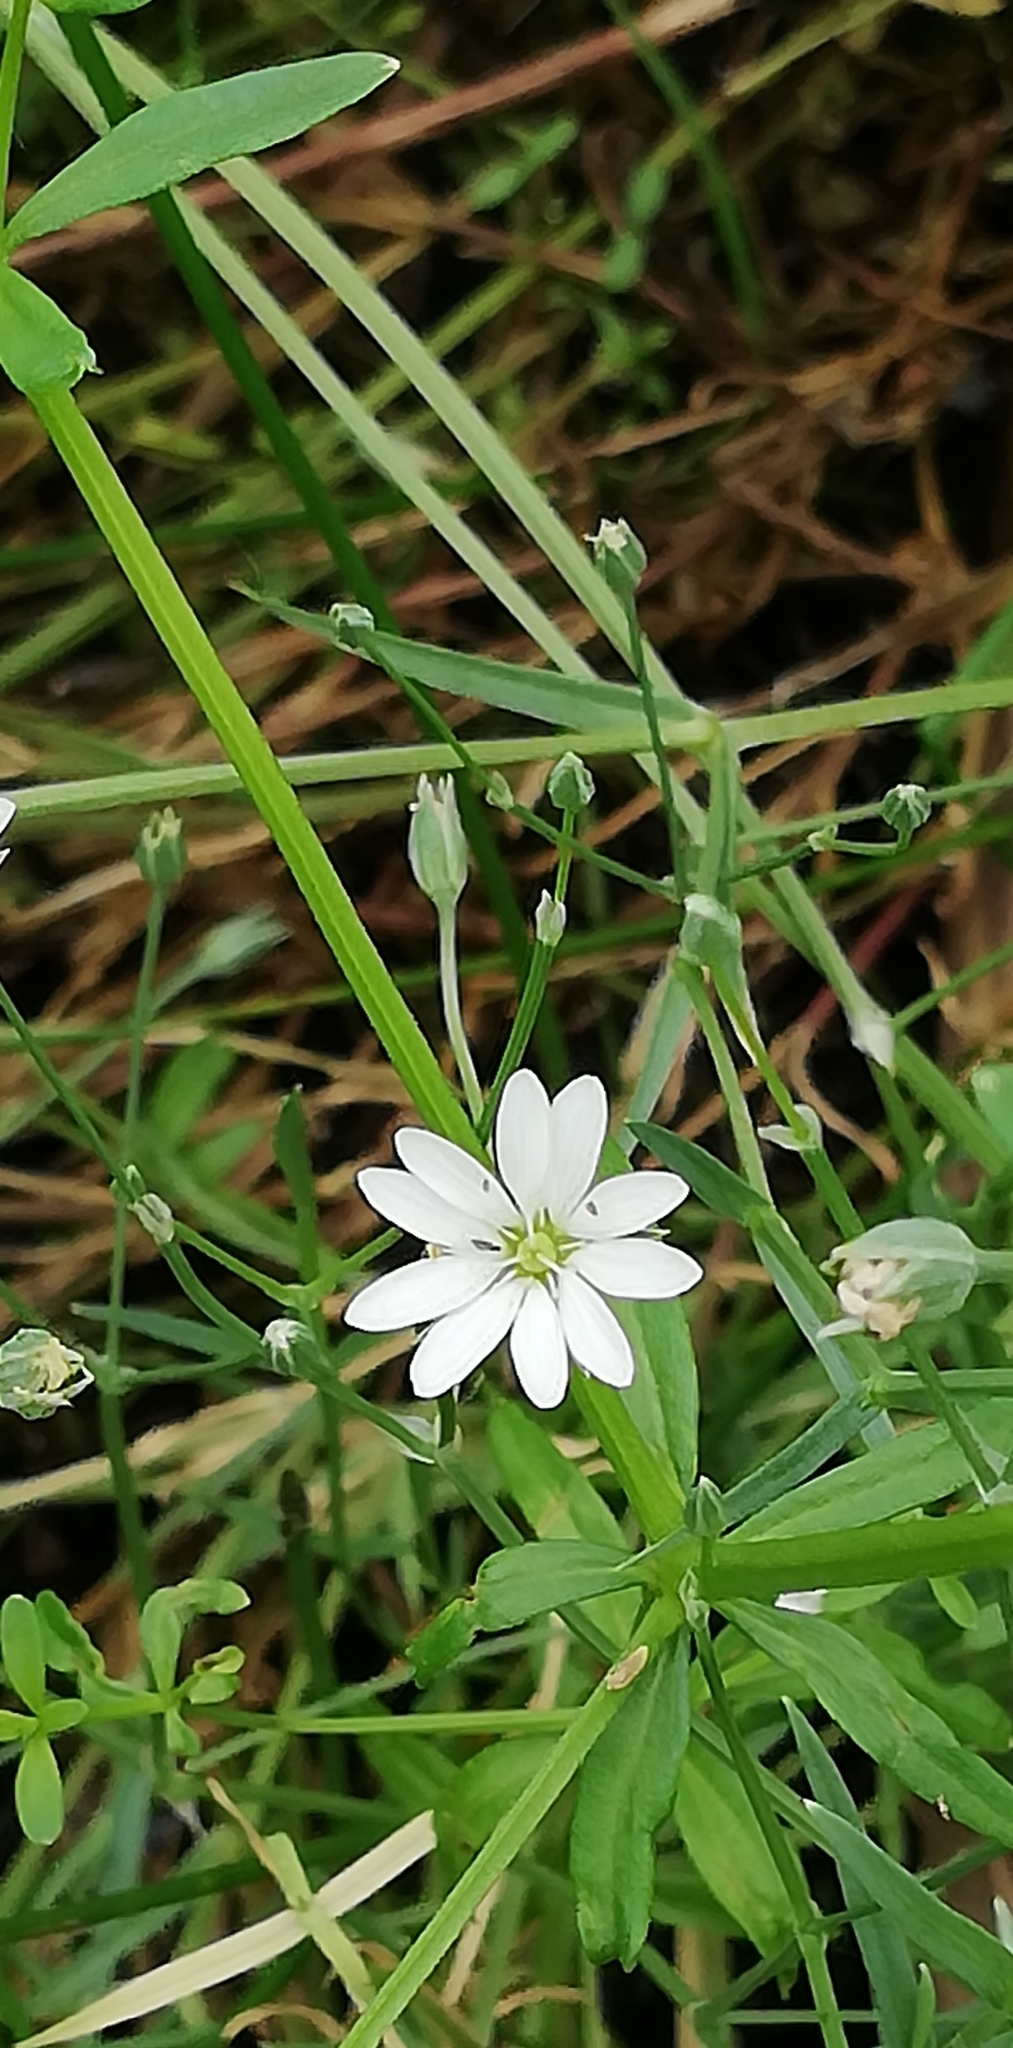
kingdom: Plantae
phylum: Tracheophyta
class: Magnoliopsida
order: Caryophyllales
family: Caryophyllaceae
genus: Stellaria
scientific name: Stellaria palustris
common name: Marsh stitchwort
